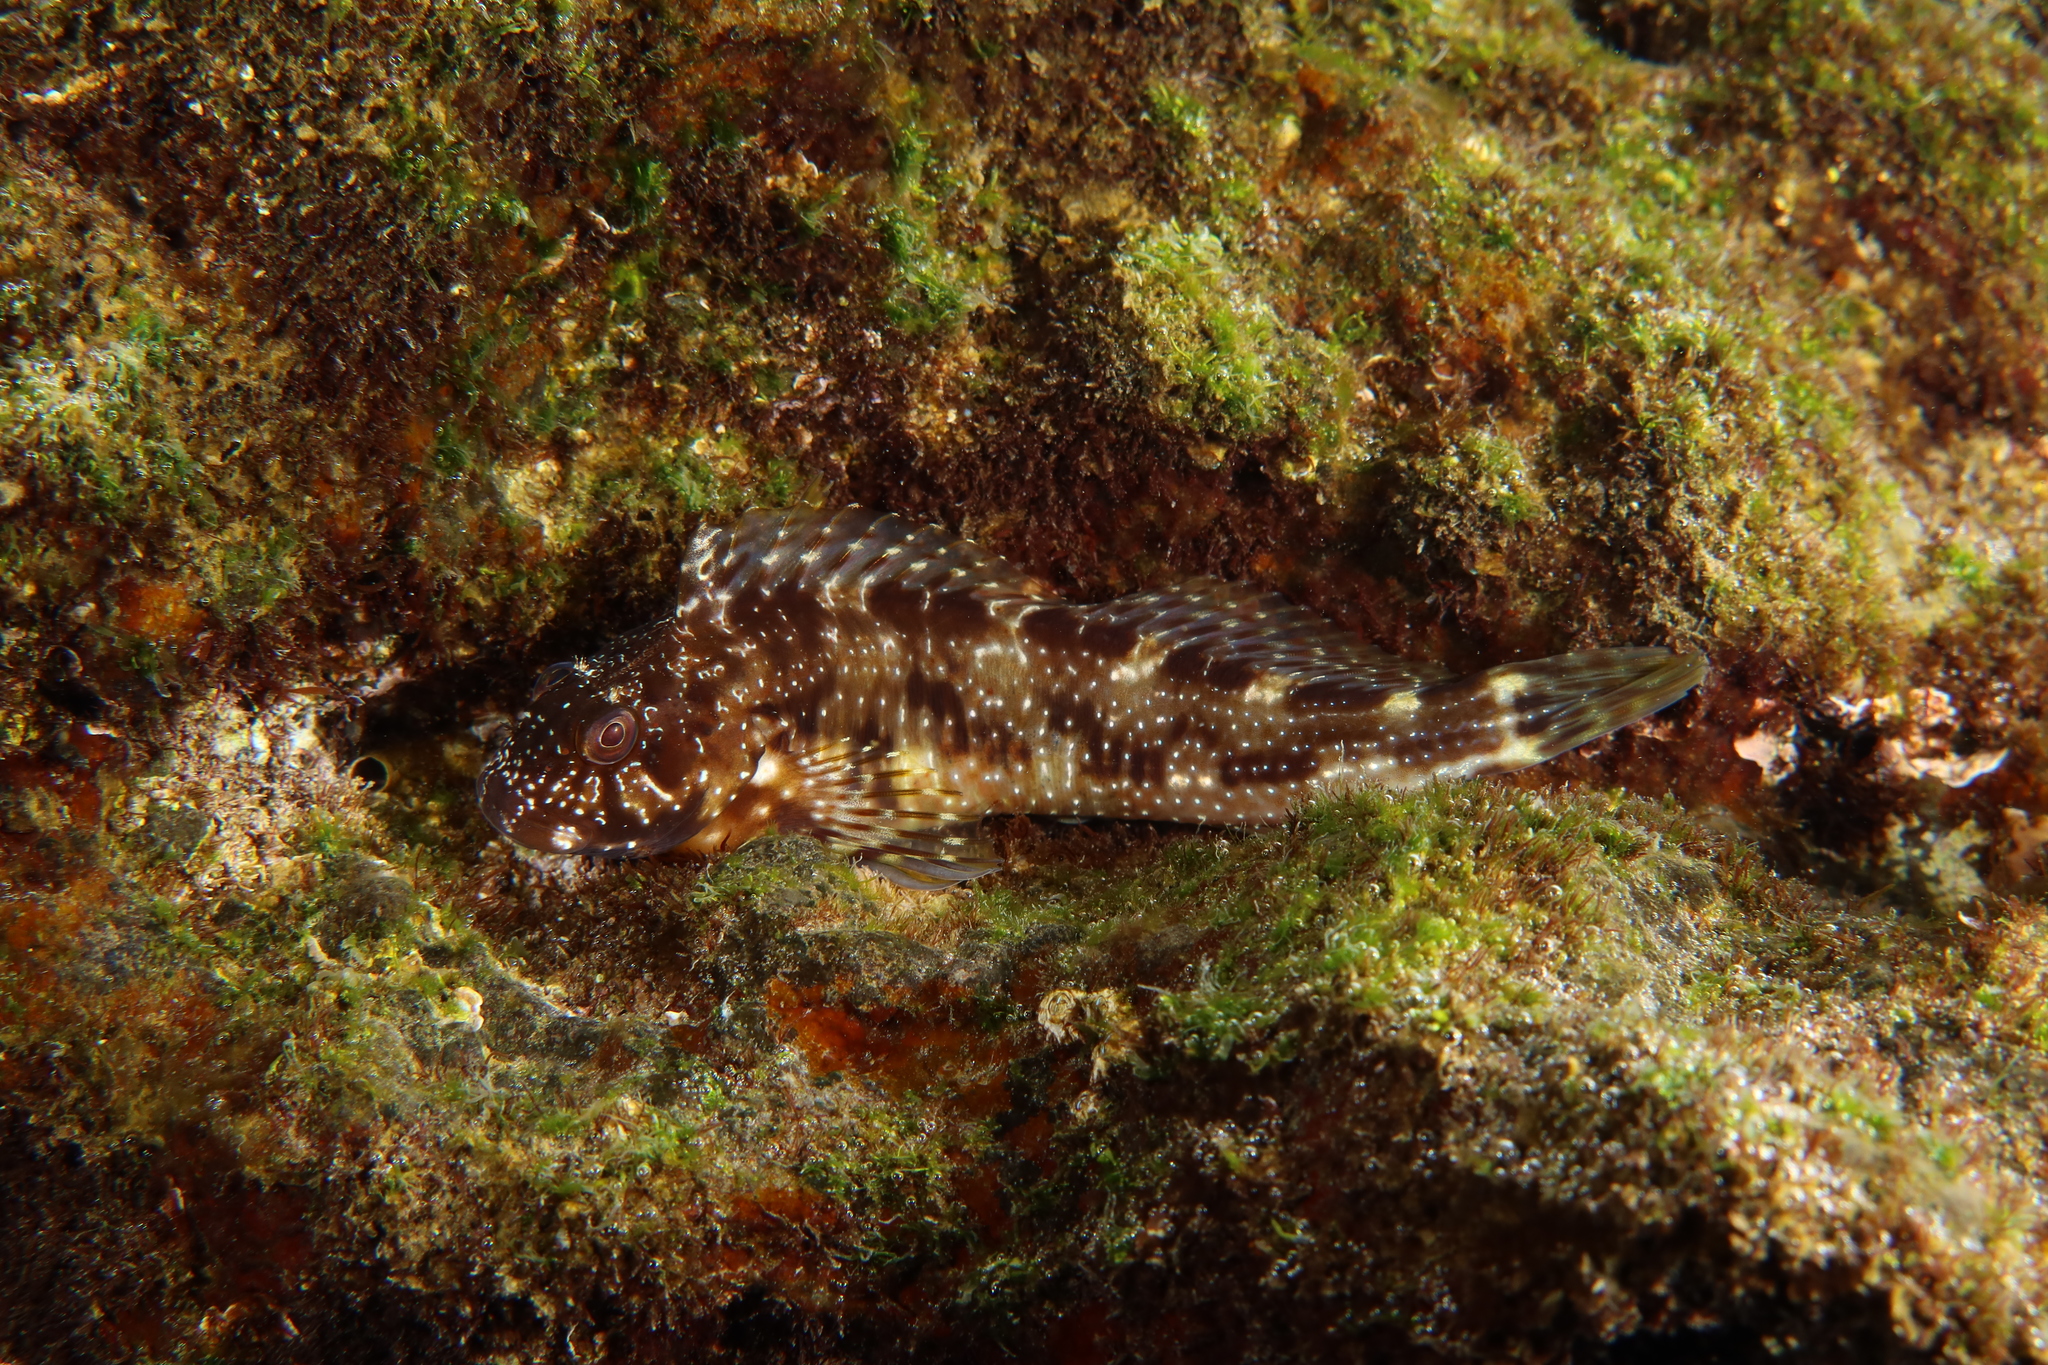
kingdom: Animalia
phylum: Chordata
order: Perciformes
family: Blenniidae
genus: Scartella
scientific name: Scartella cristata
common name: Molly miller
